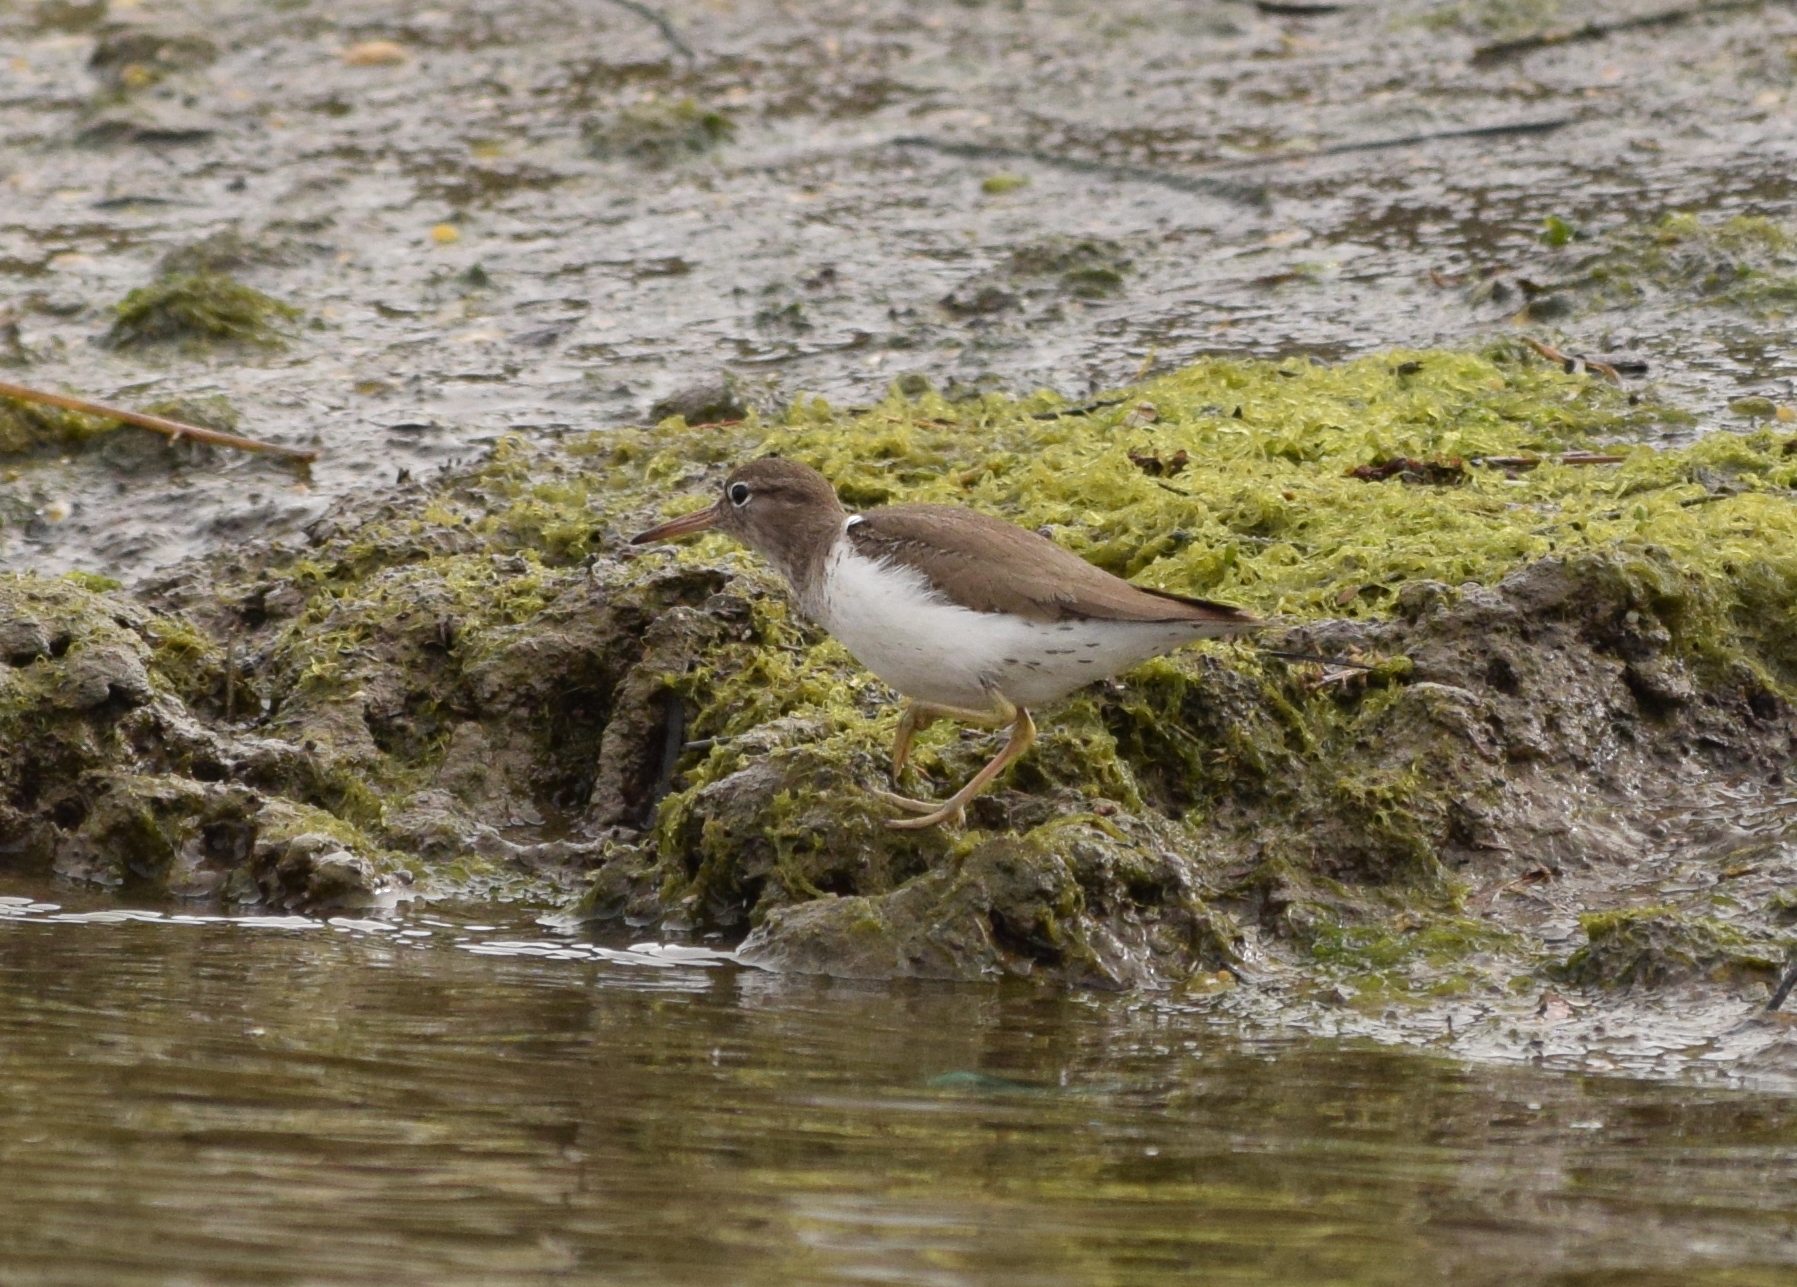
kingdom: Animalia
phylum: Chordata
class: Aves
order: Charadriiformes
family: Scolopacidae
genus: Actitis
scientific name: Actitis macularius
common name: Spotted sandpiper
